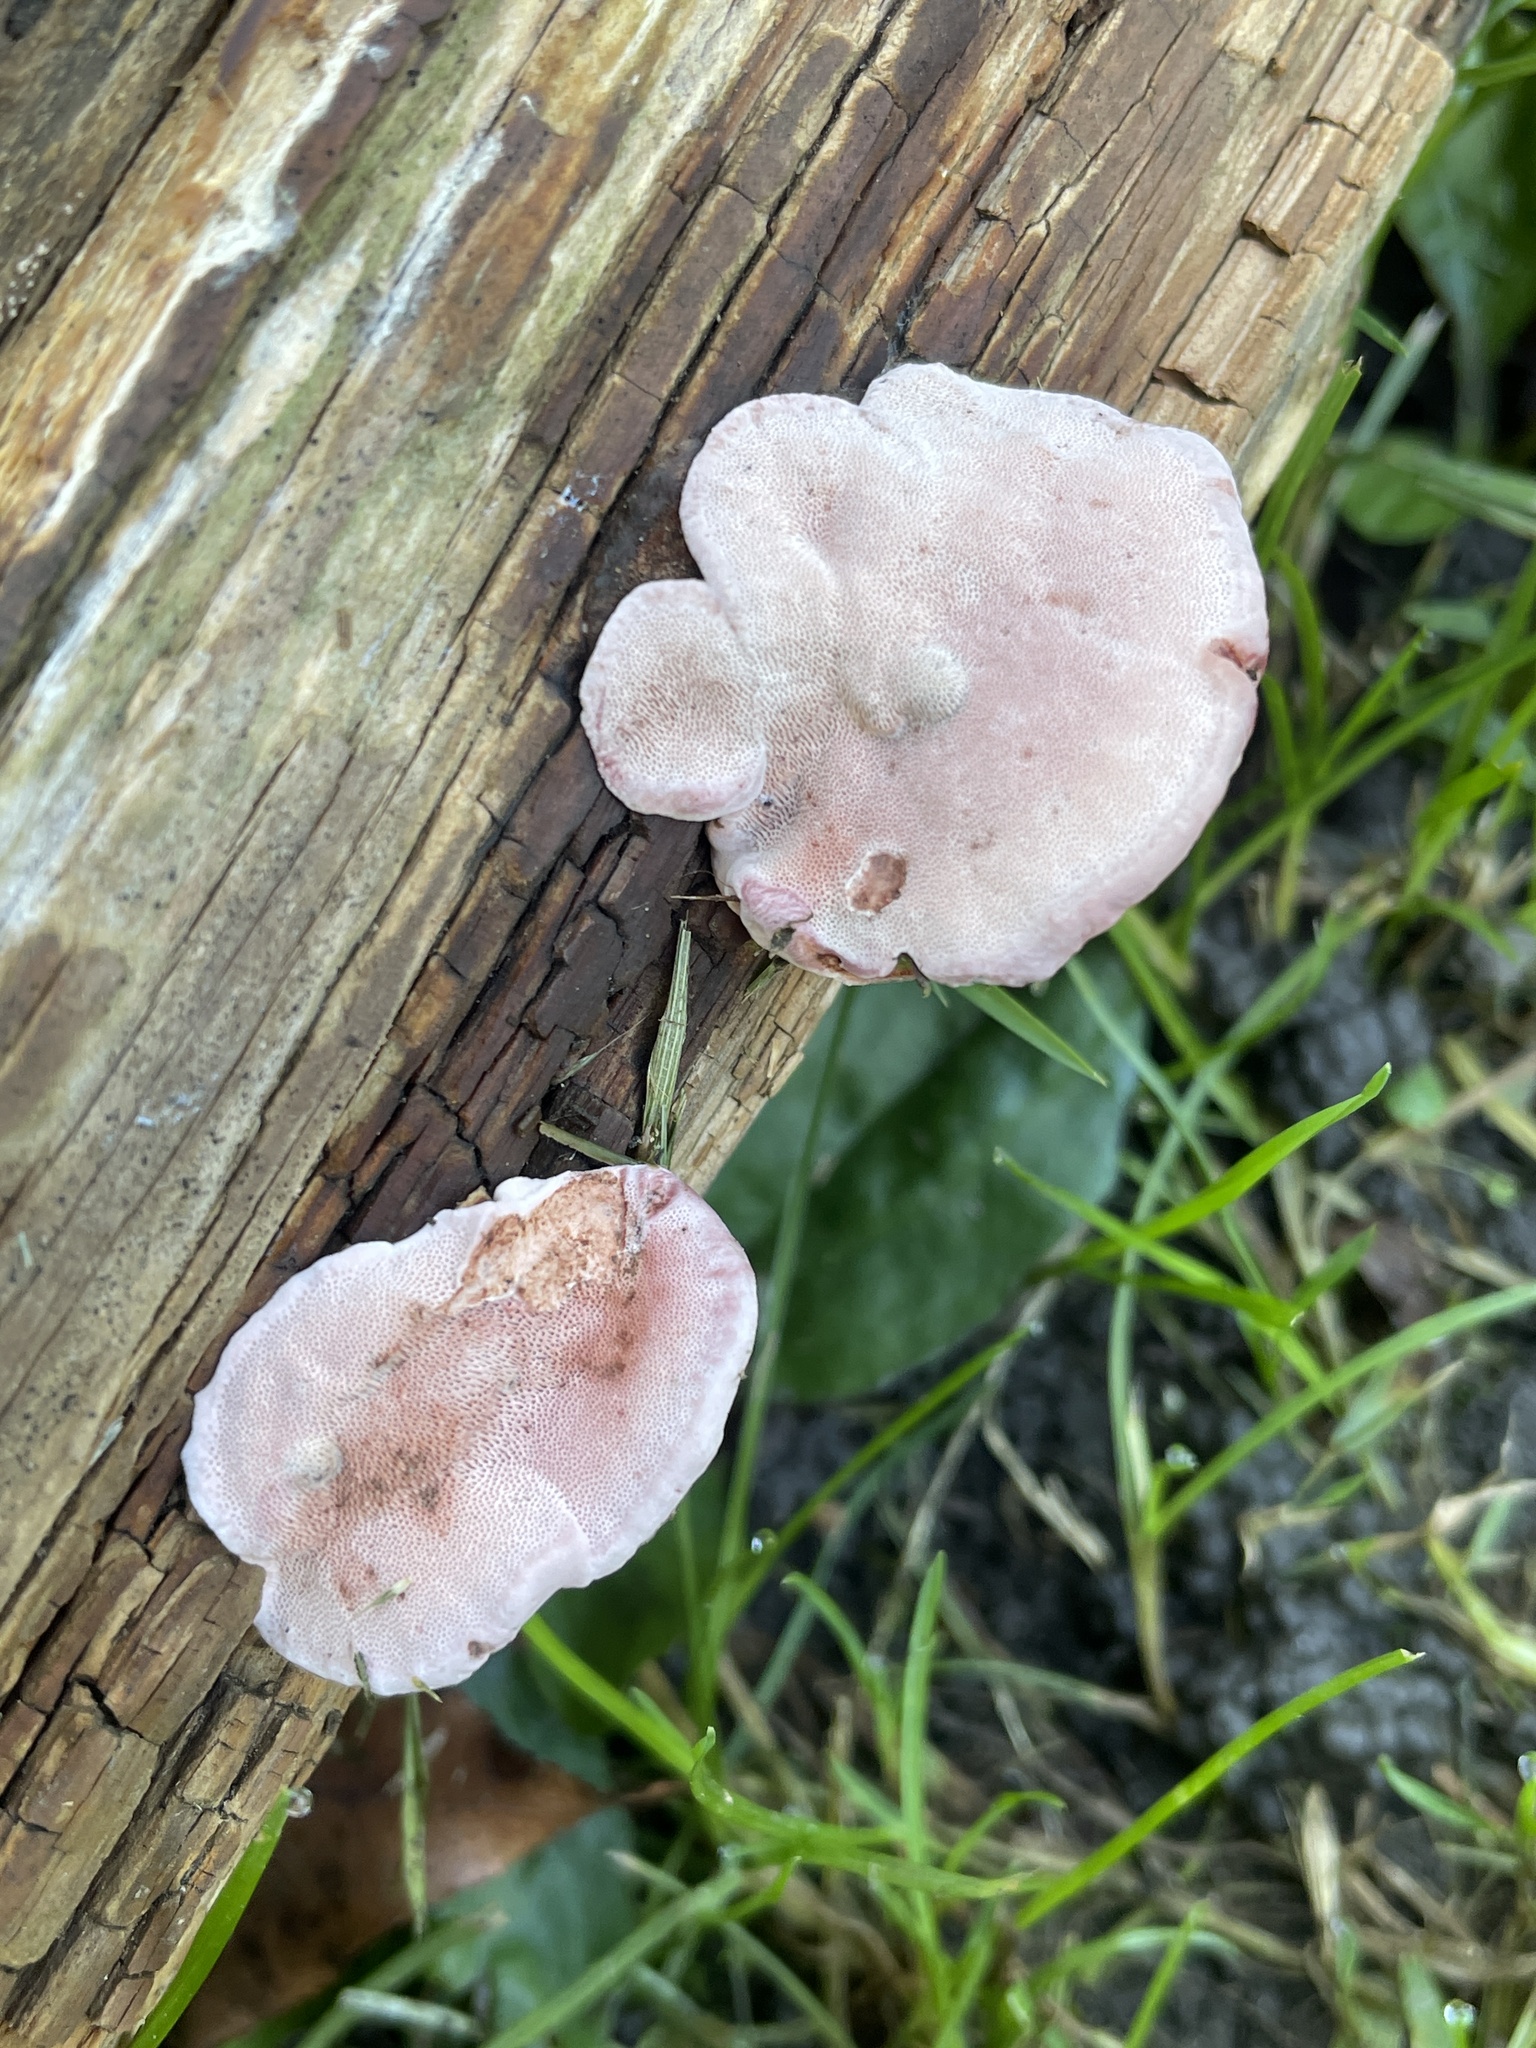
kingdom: Fungi
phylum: Basidiomycota
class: Agaricomycetes
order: Polyporales
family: Fomitopsidaceae
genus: Rhodofomes
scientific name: Rhodofomes cajanderi
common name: Rosy conk
